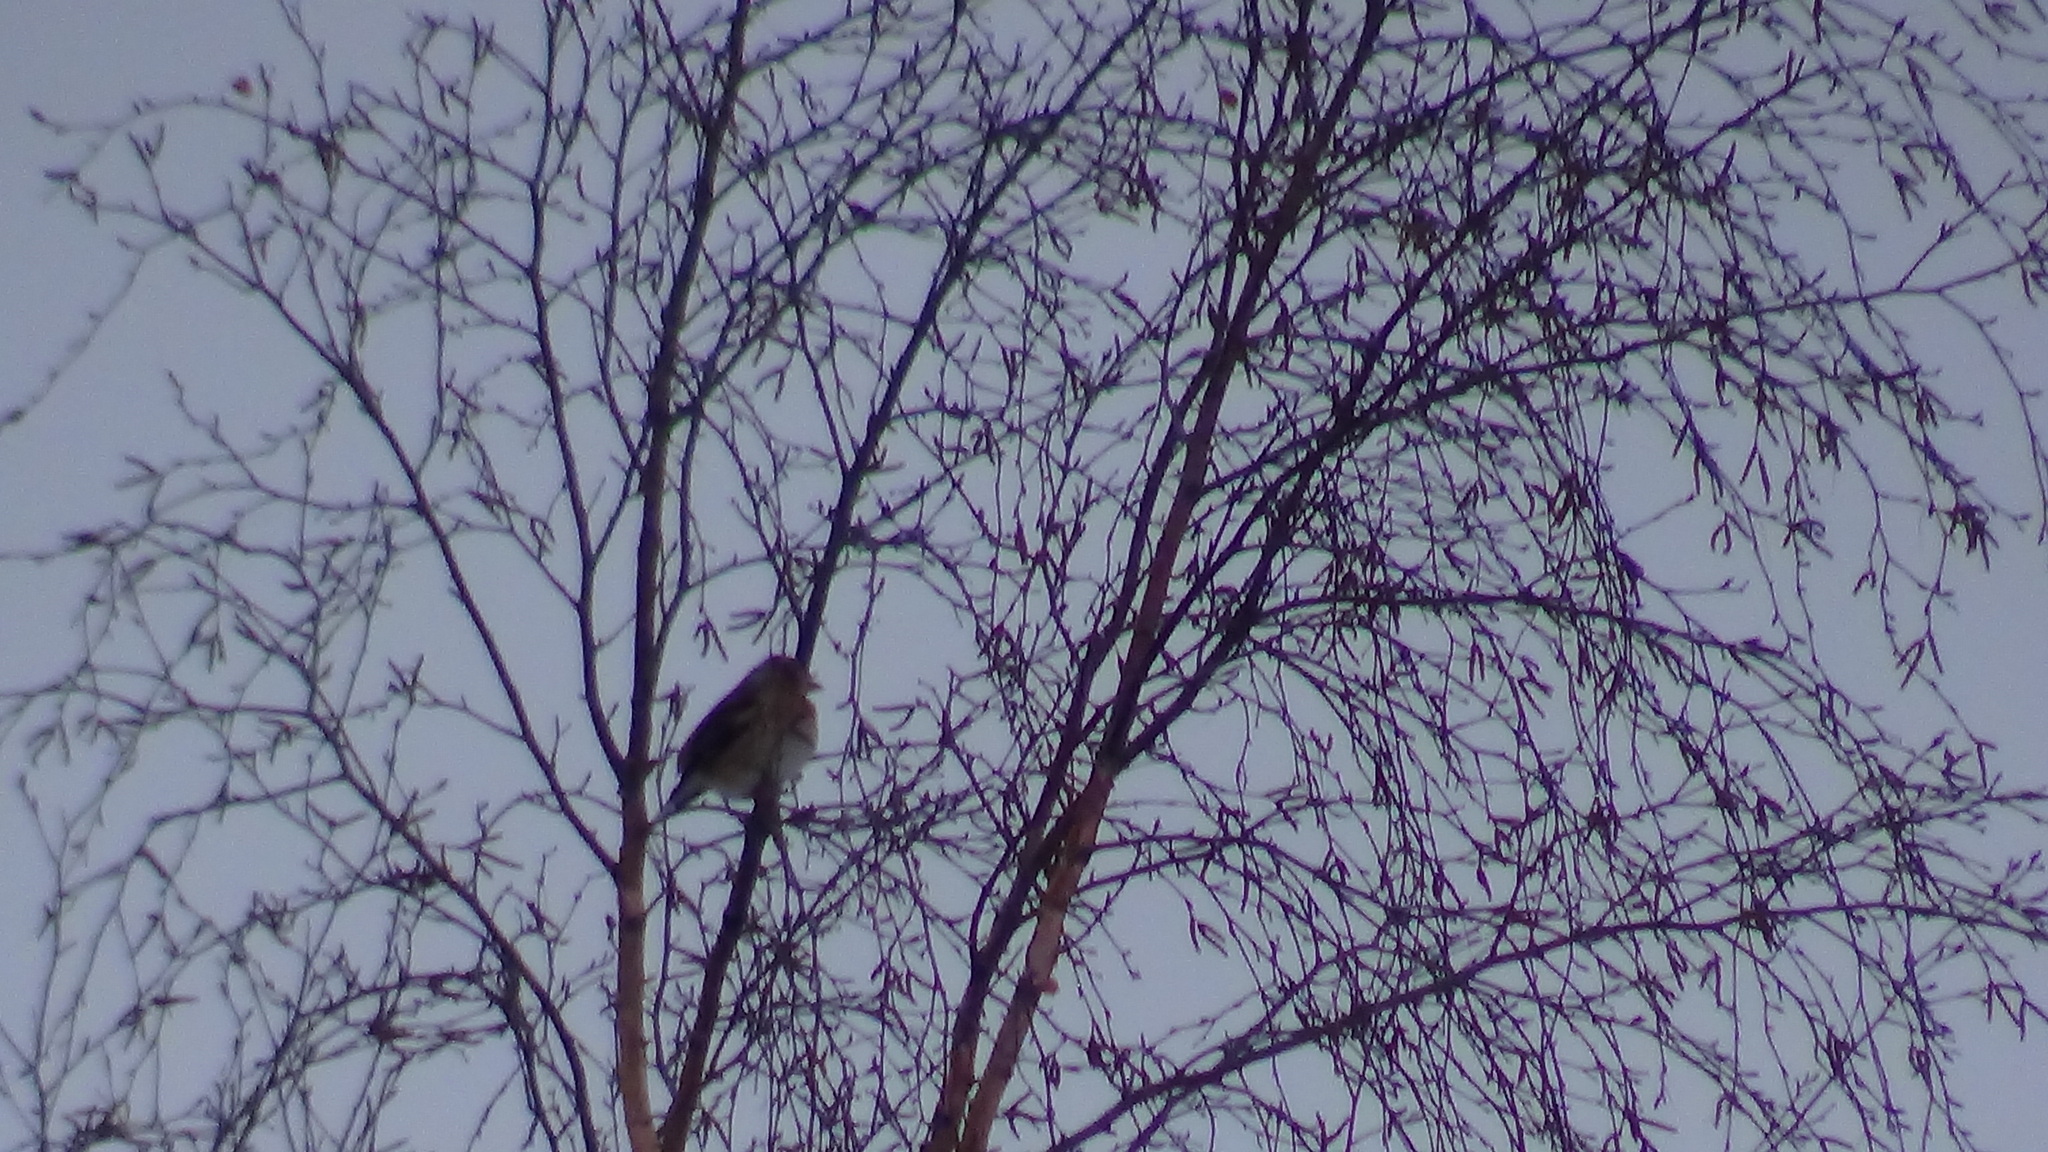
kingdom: Animalia
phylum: Chordata
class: Aves
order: Passeriformes
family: Fringillidae
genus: Coccothraustes
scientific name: Coccothraustes coccothraustes
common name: Hawfinch
